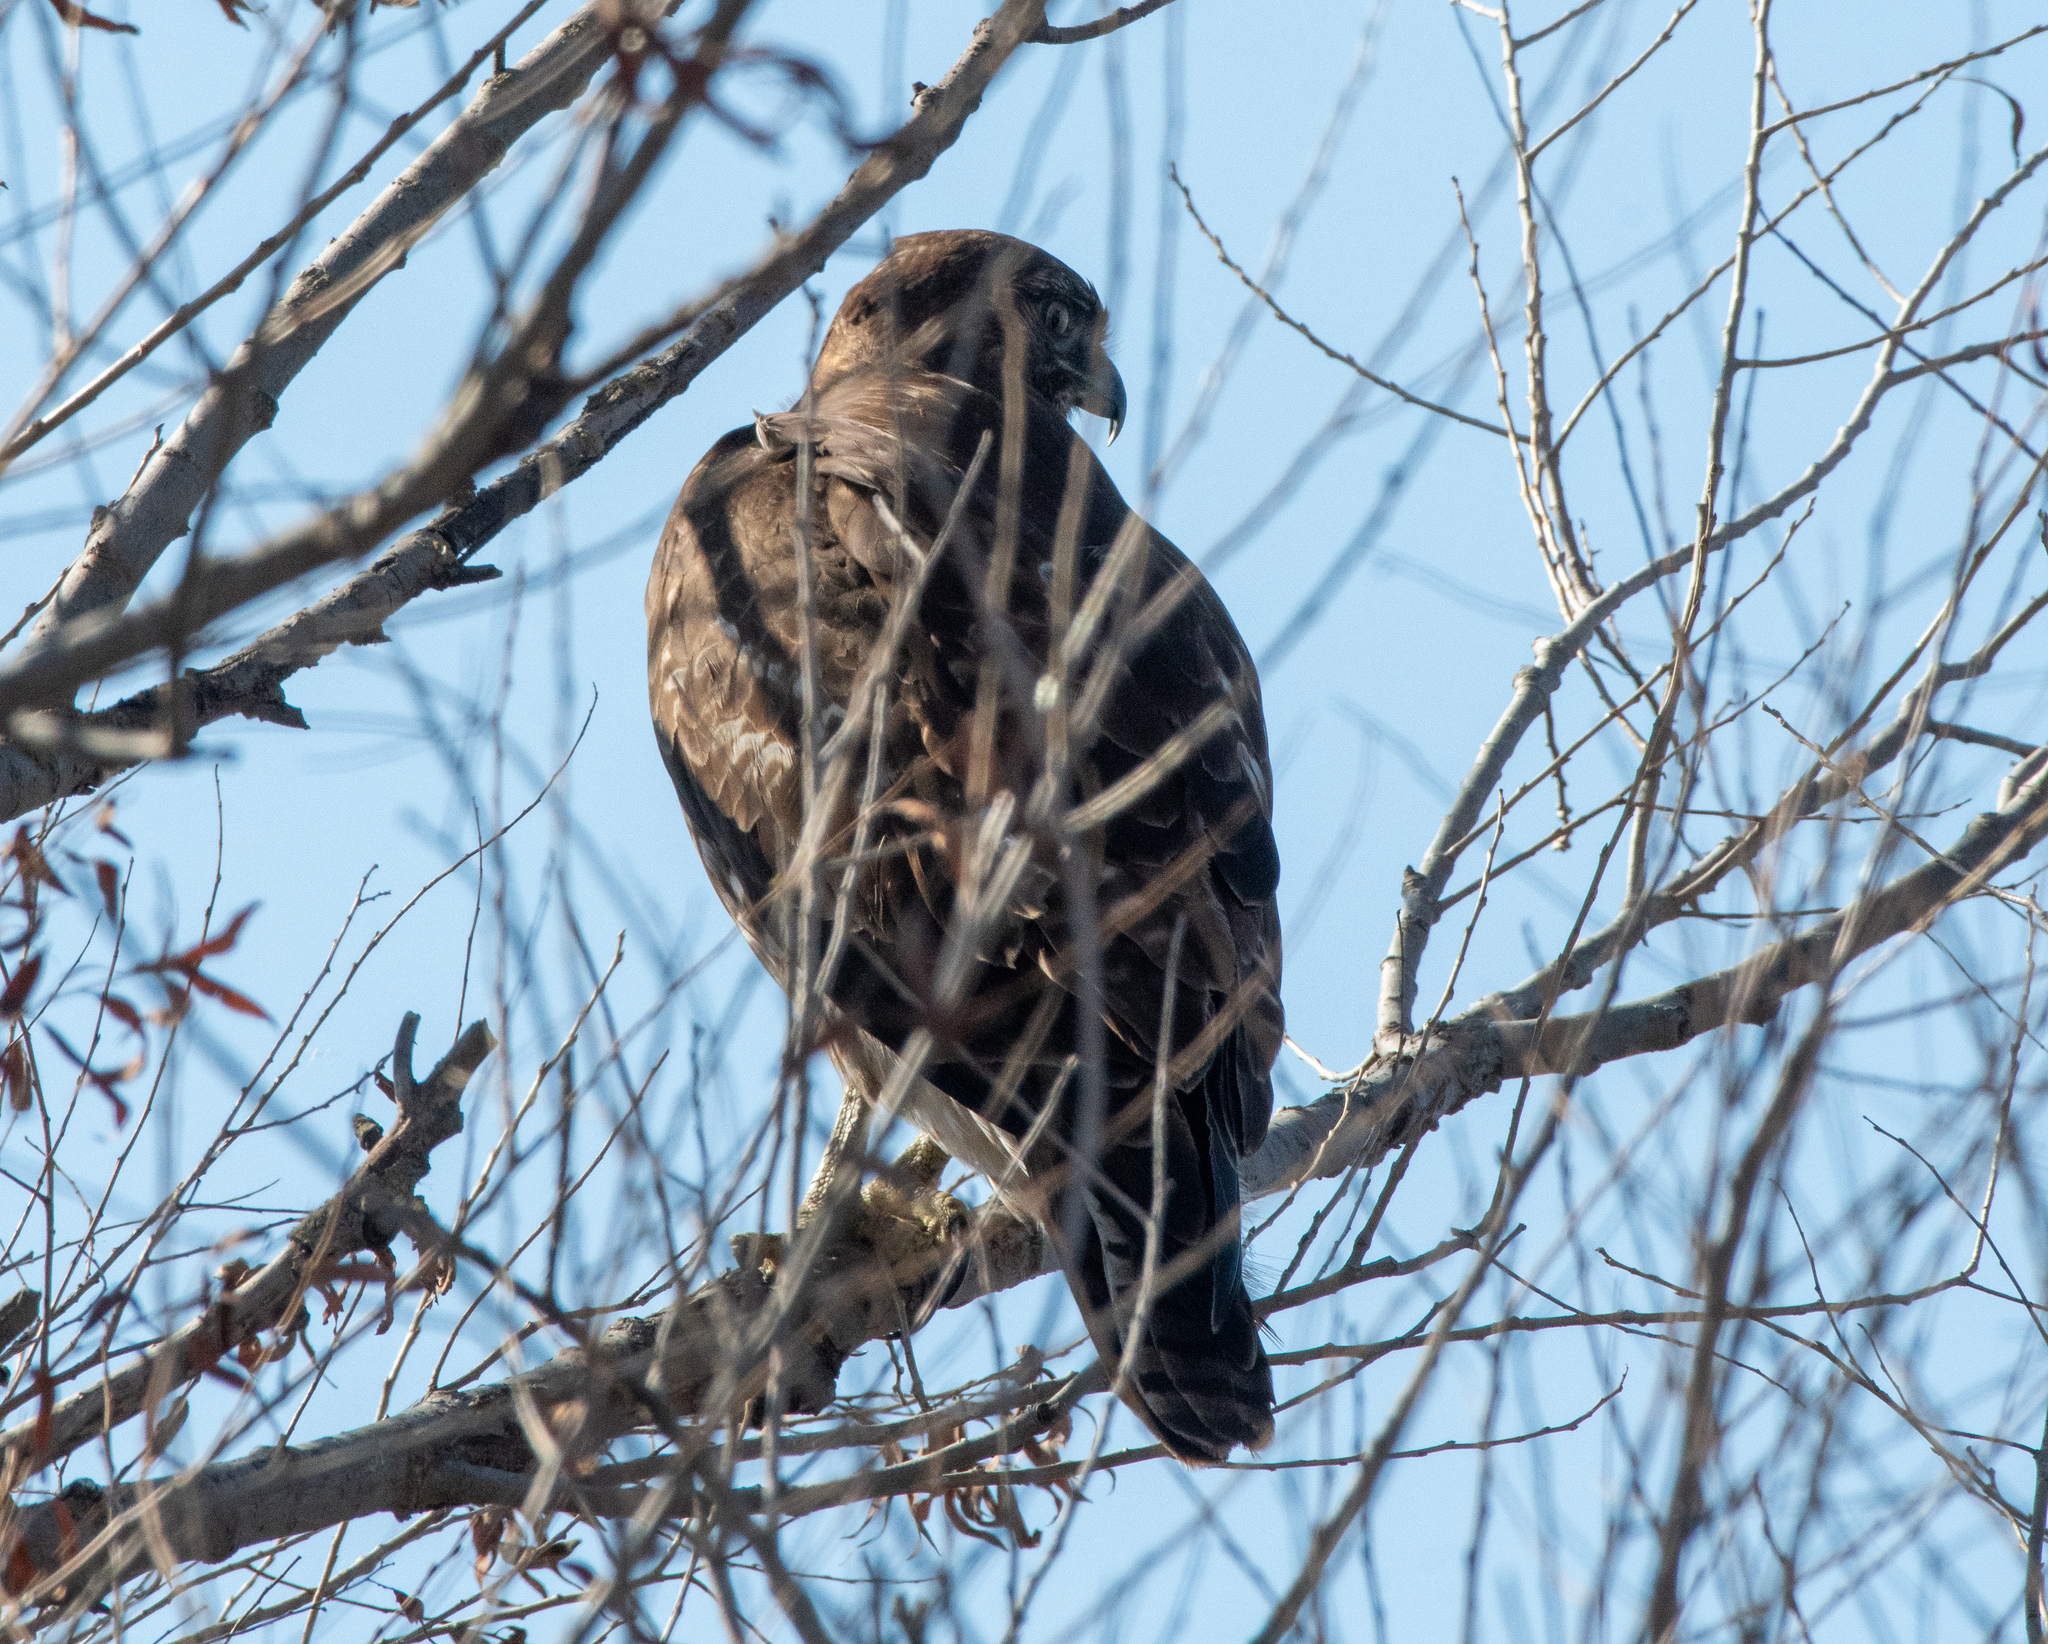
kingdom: Animalia
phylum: Chordata
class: Aves
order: Accipitriformes
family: Accipitridae
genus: Buteo
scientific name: Buteo jamaicensis
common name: Red-tailed hawk
